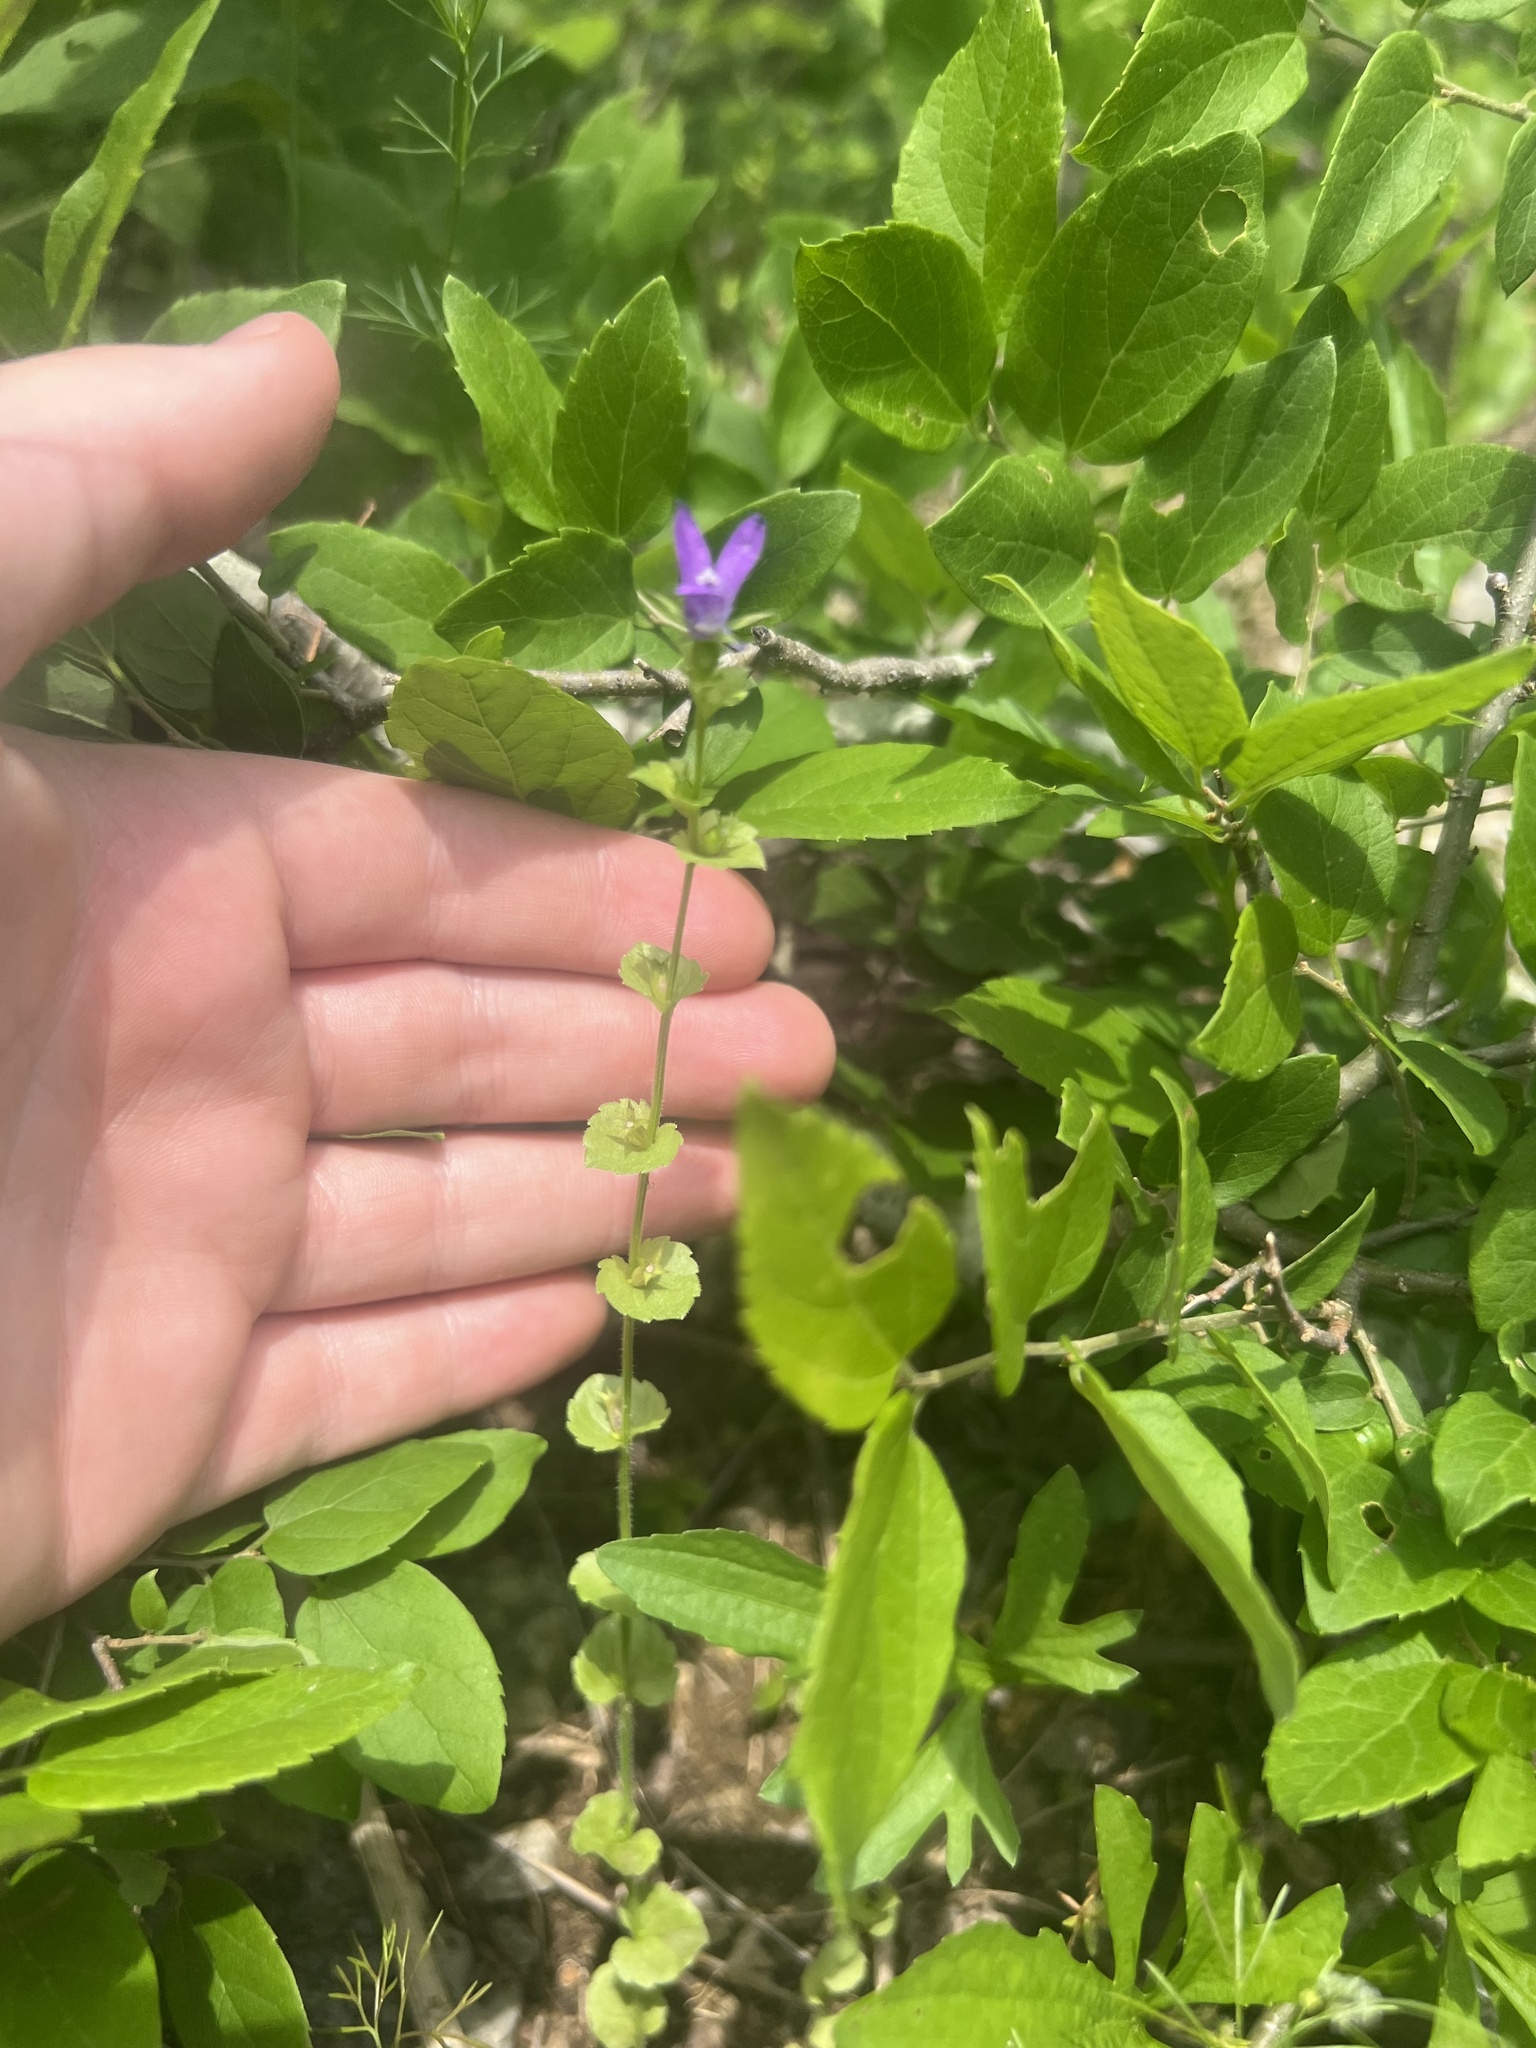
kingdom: Plantae
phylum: Tracheophyta
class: Magnoliopsida
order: Asterales
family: Campanulaceae
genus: Triodanis
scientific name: Triodanis perfoliata
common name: Clasping venus' looking-glass
